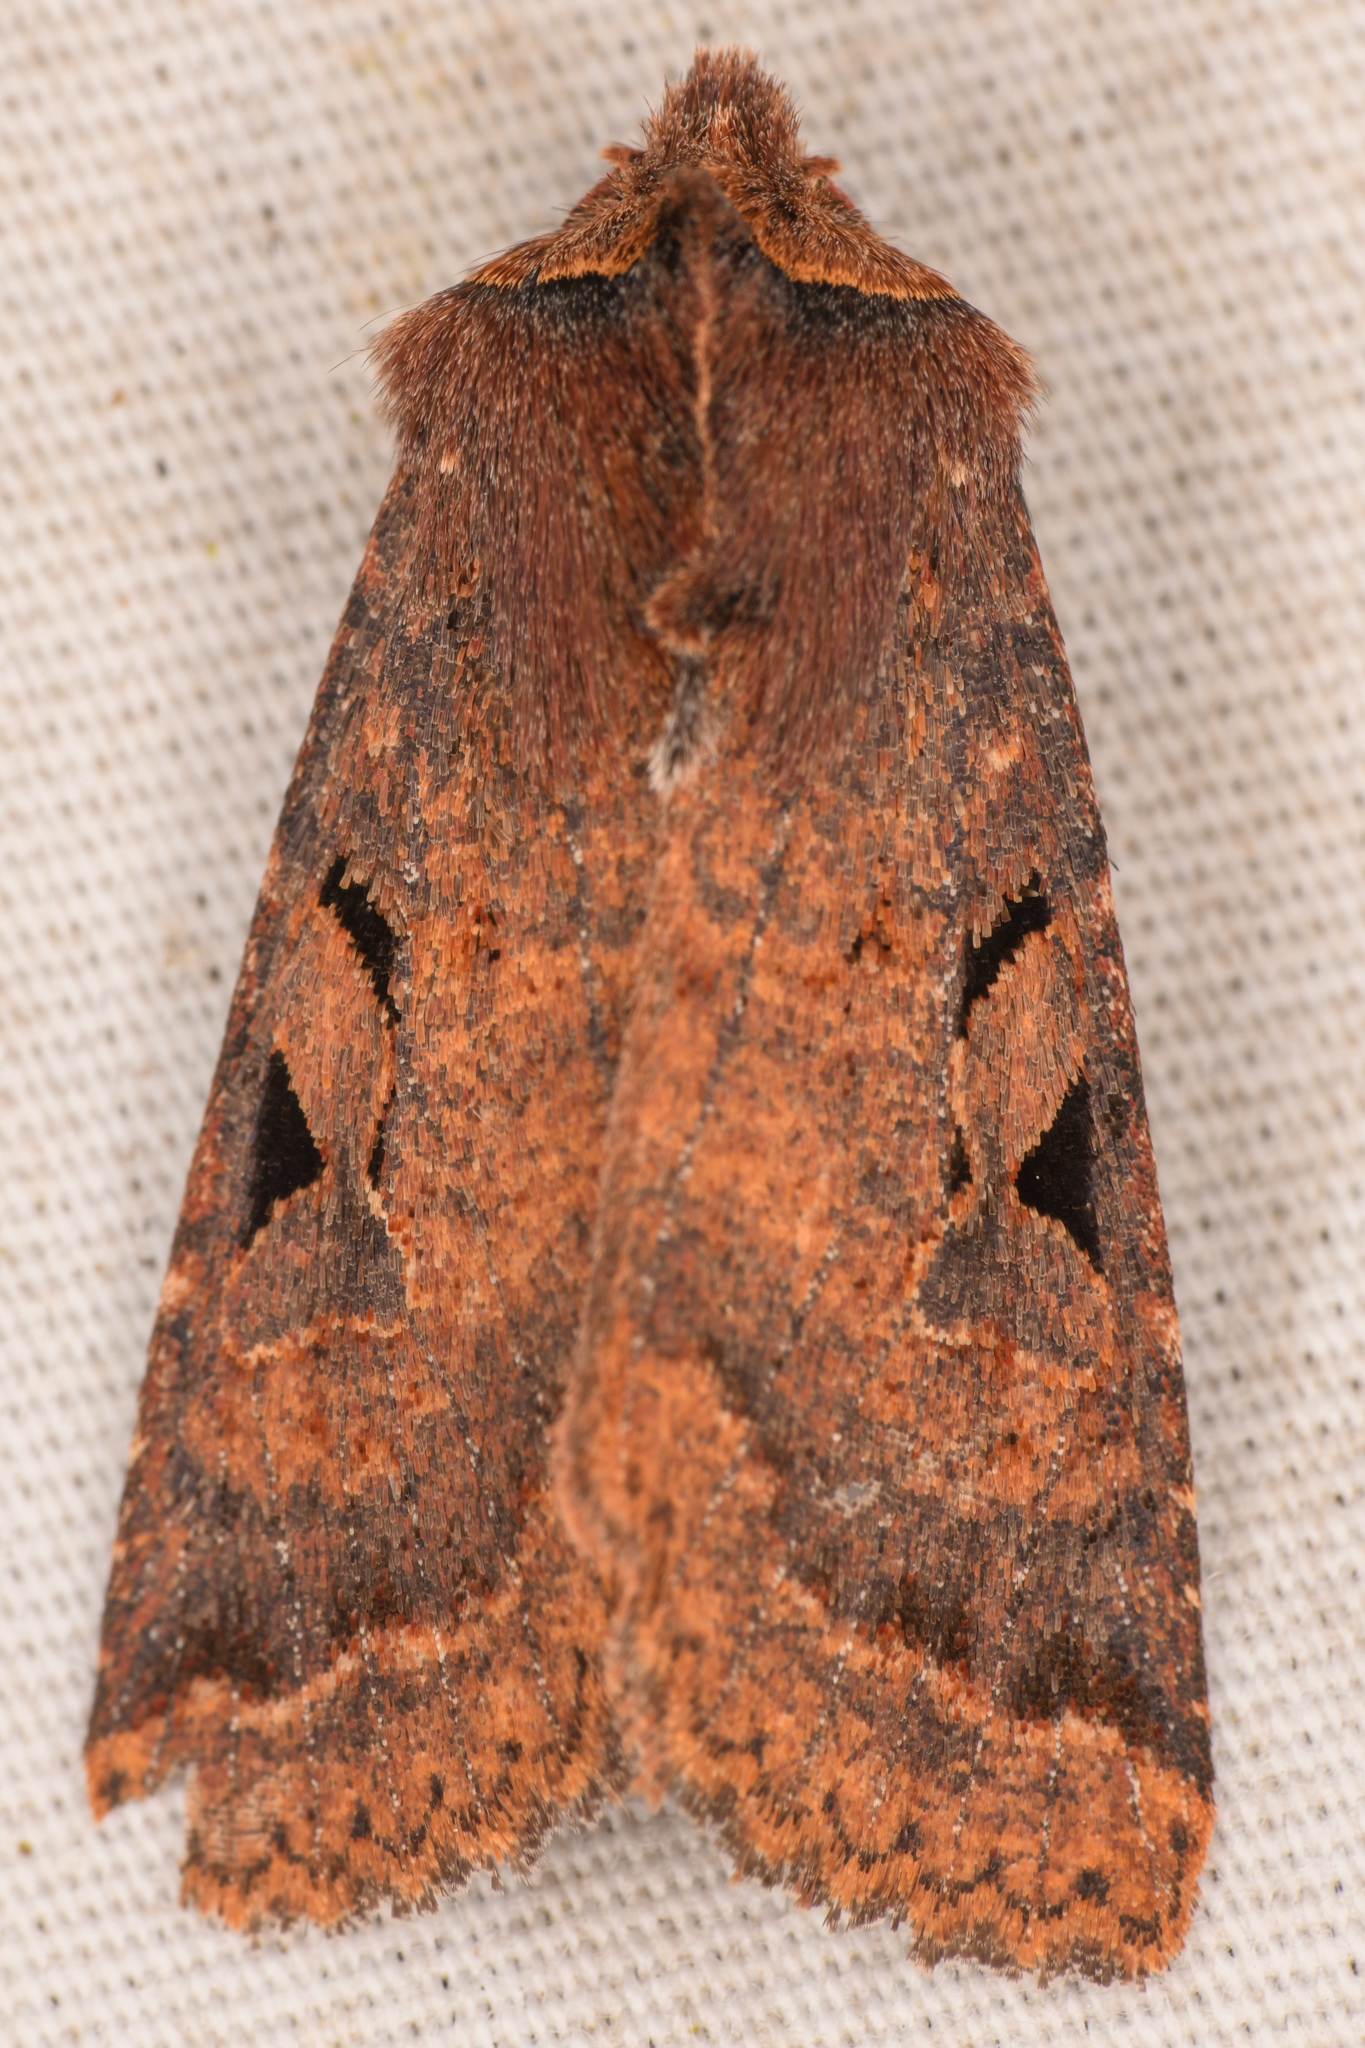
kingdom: Animalia
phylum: Arthropoda
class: Insecta
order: Lepidoptera
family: Noctuidae
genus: Orthosia
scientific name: Orthosia praeses
